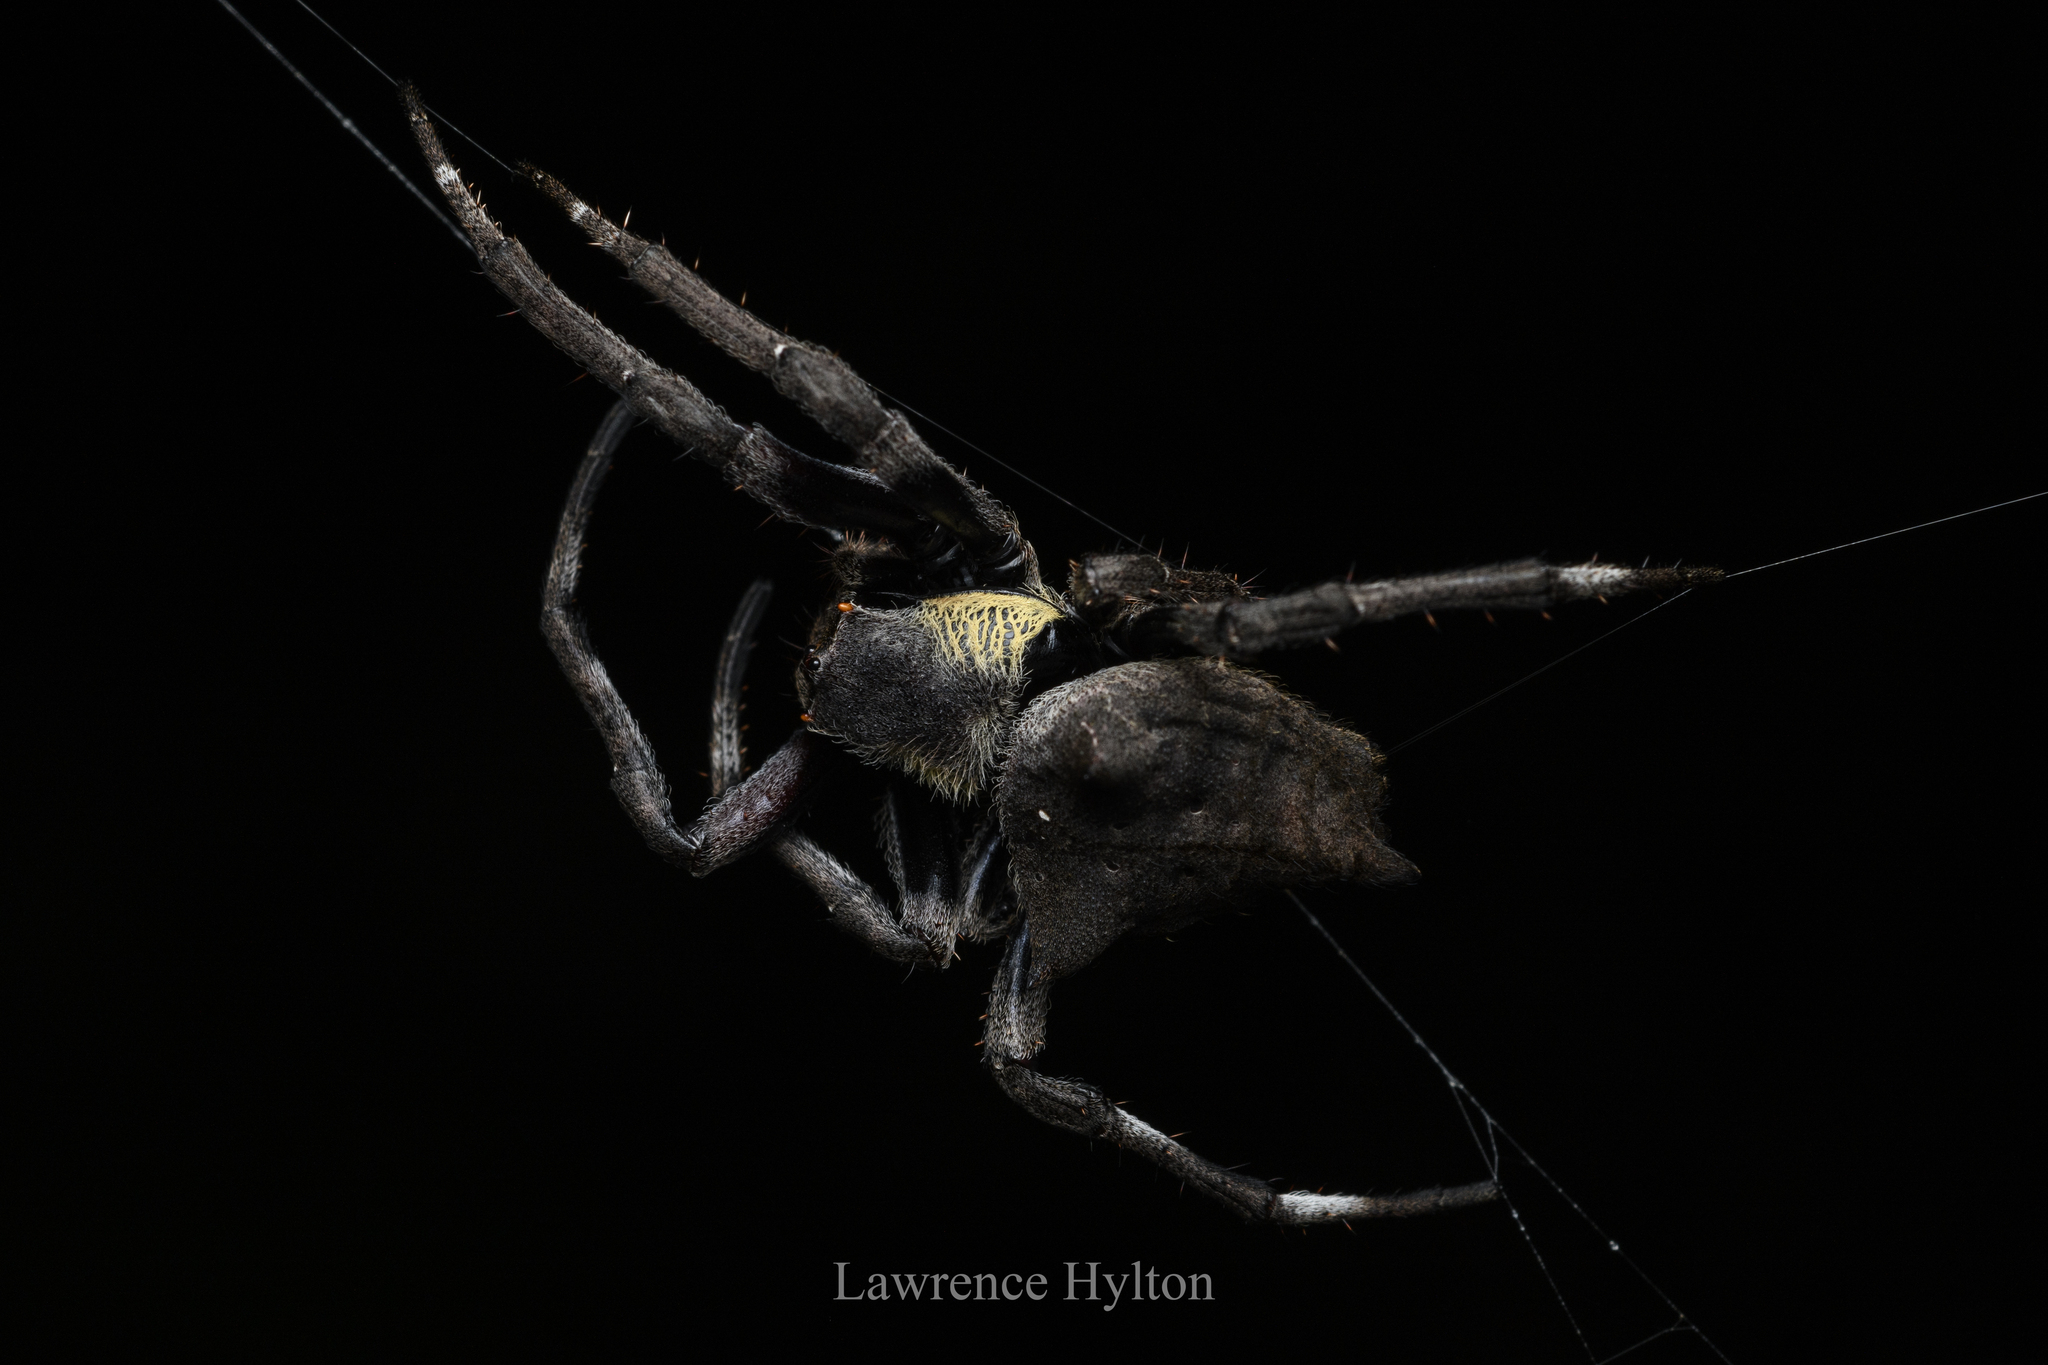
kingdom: Animalia
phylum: Arthropoda
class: Arachnida
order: Araneae
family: Araneidae
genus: Parawixia
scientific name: Parawixia dehaani
